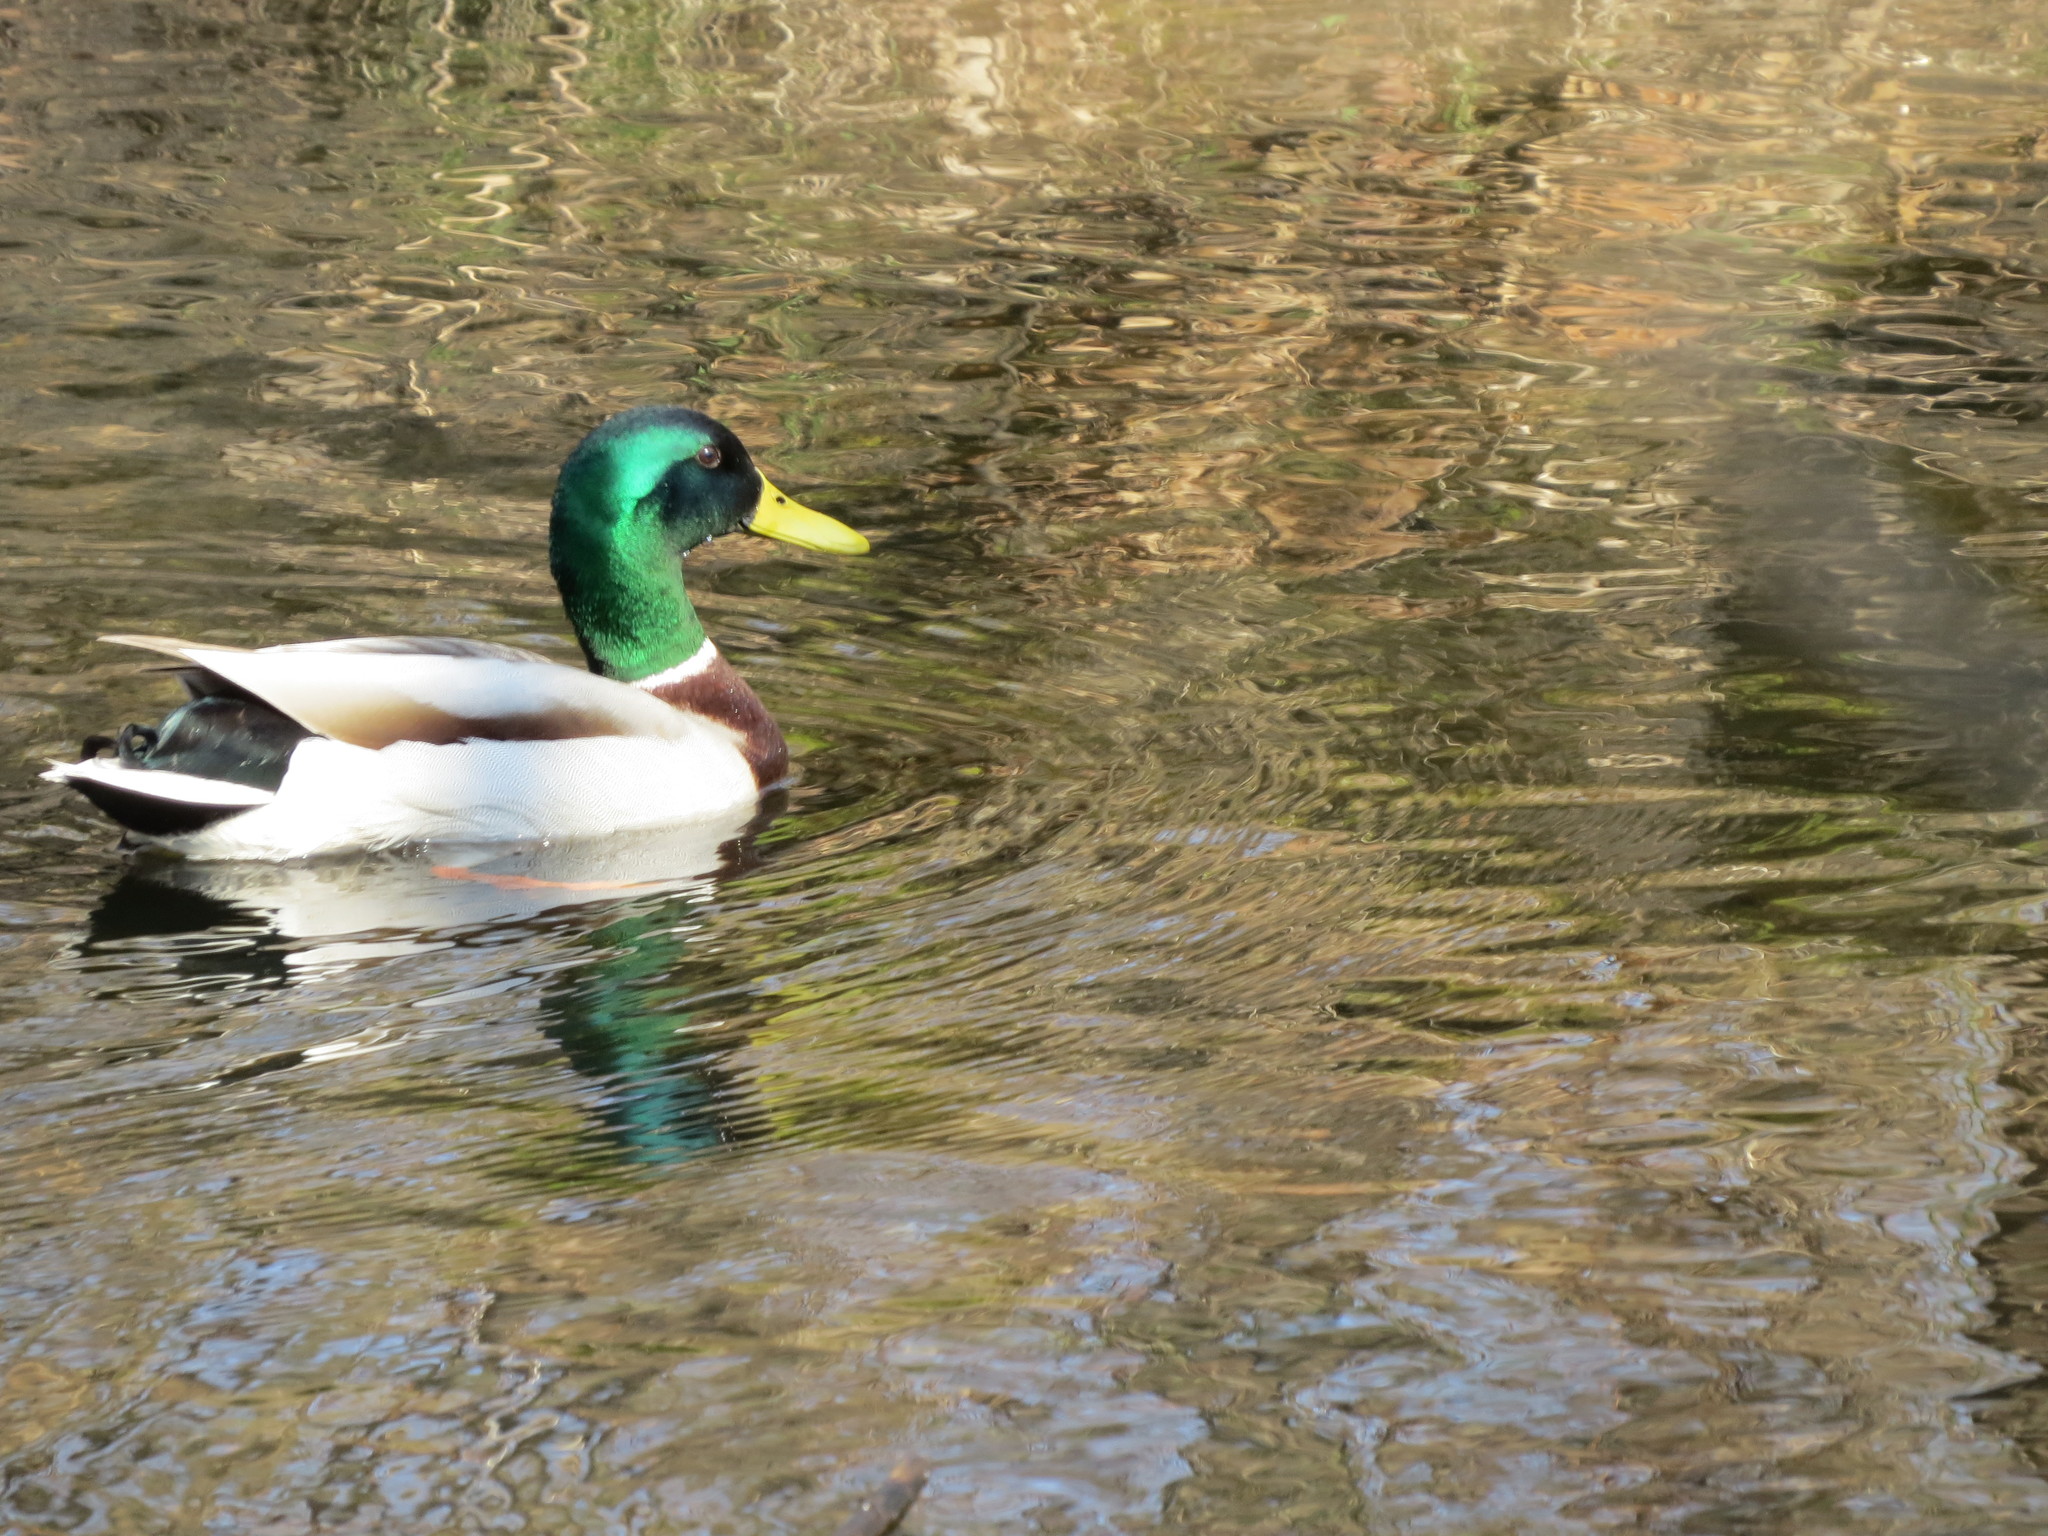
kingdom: Animalia
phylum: Chordata
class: Aves
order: Anseriformes
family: Anatidae
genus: Anas
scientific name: Anas platyrhynchos
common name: Mallard
